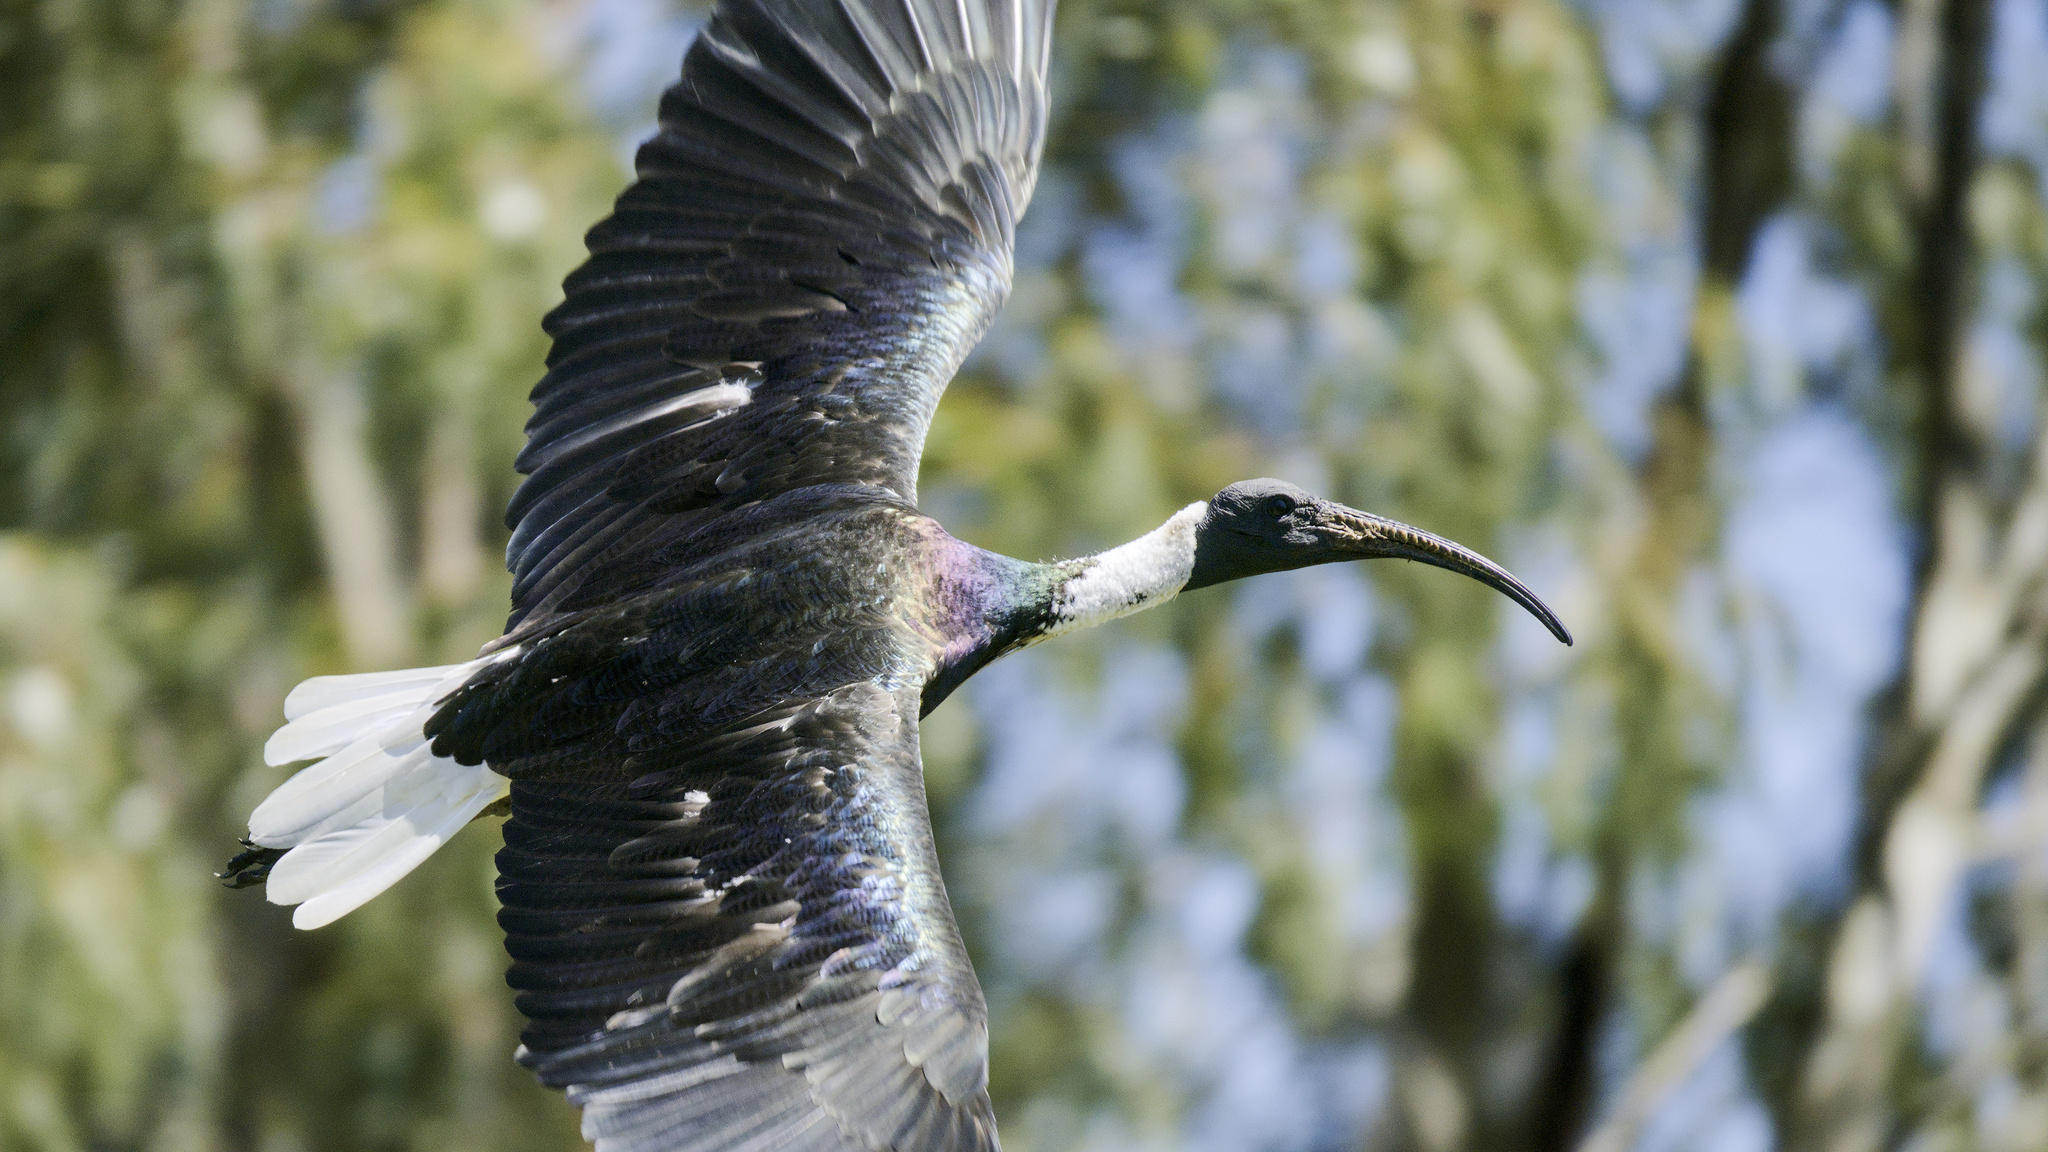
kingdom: Animalia
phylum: Chordata
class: Aves
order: Pelecaniformes
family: Threskiornithidae
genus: Threskiornis
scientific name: Threskiornis spinicollis
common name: Straw-necked ibis
